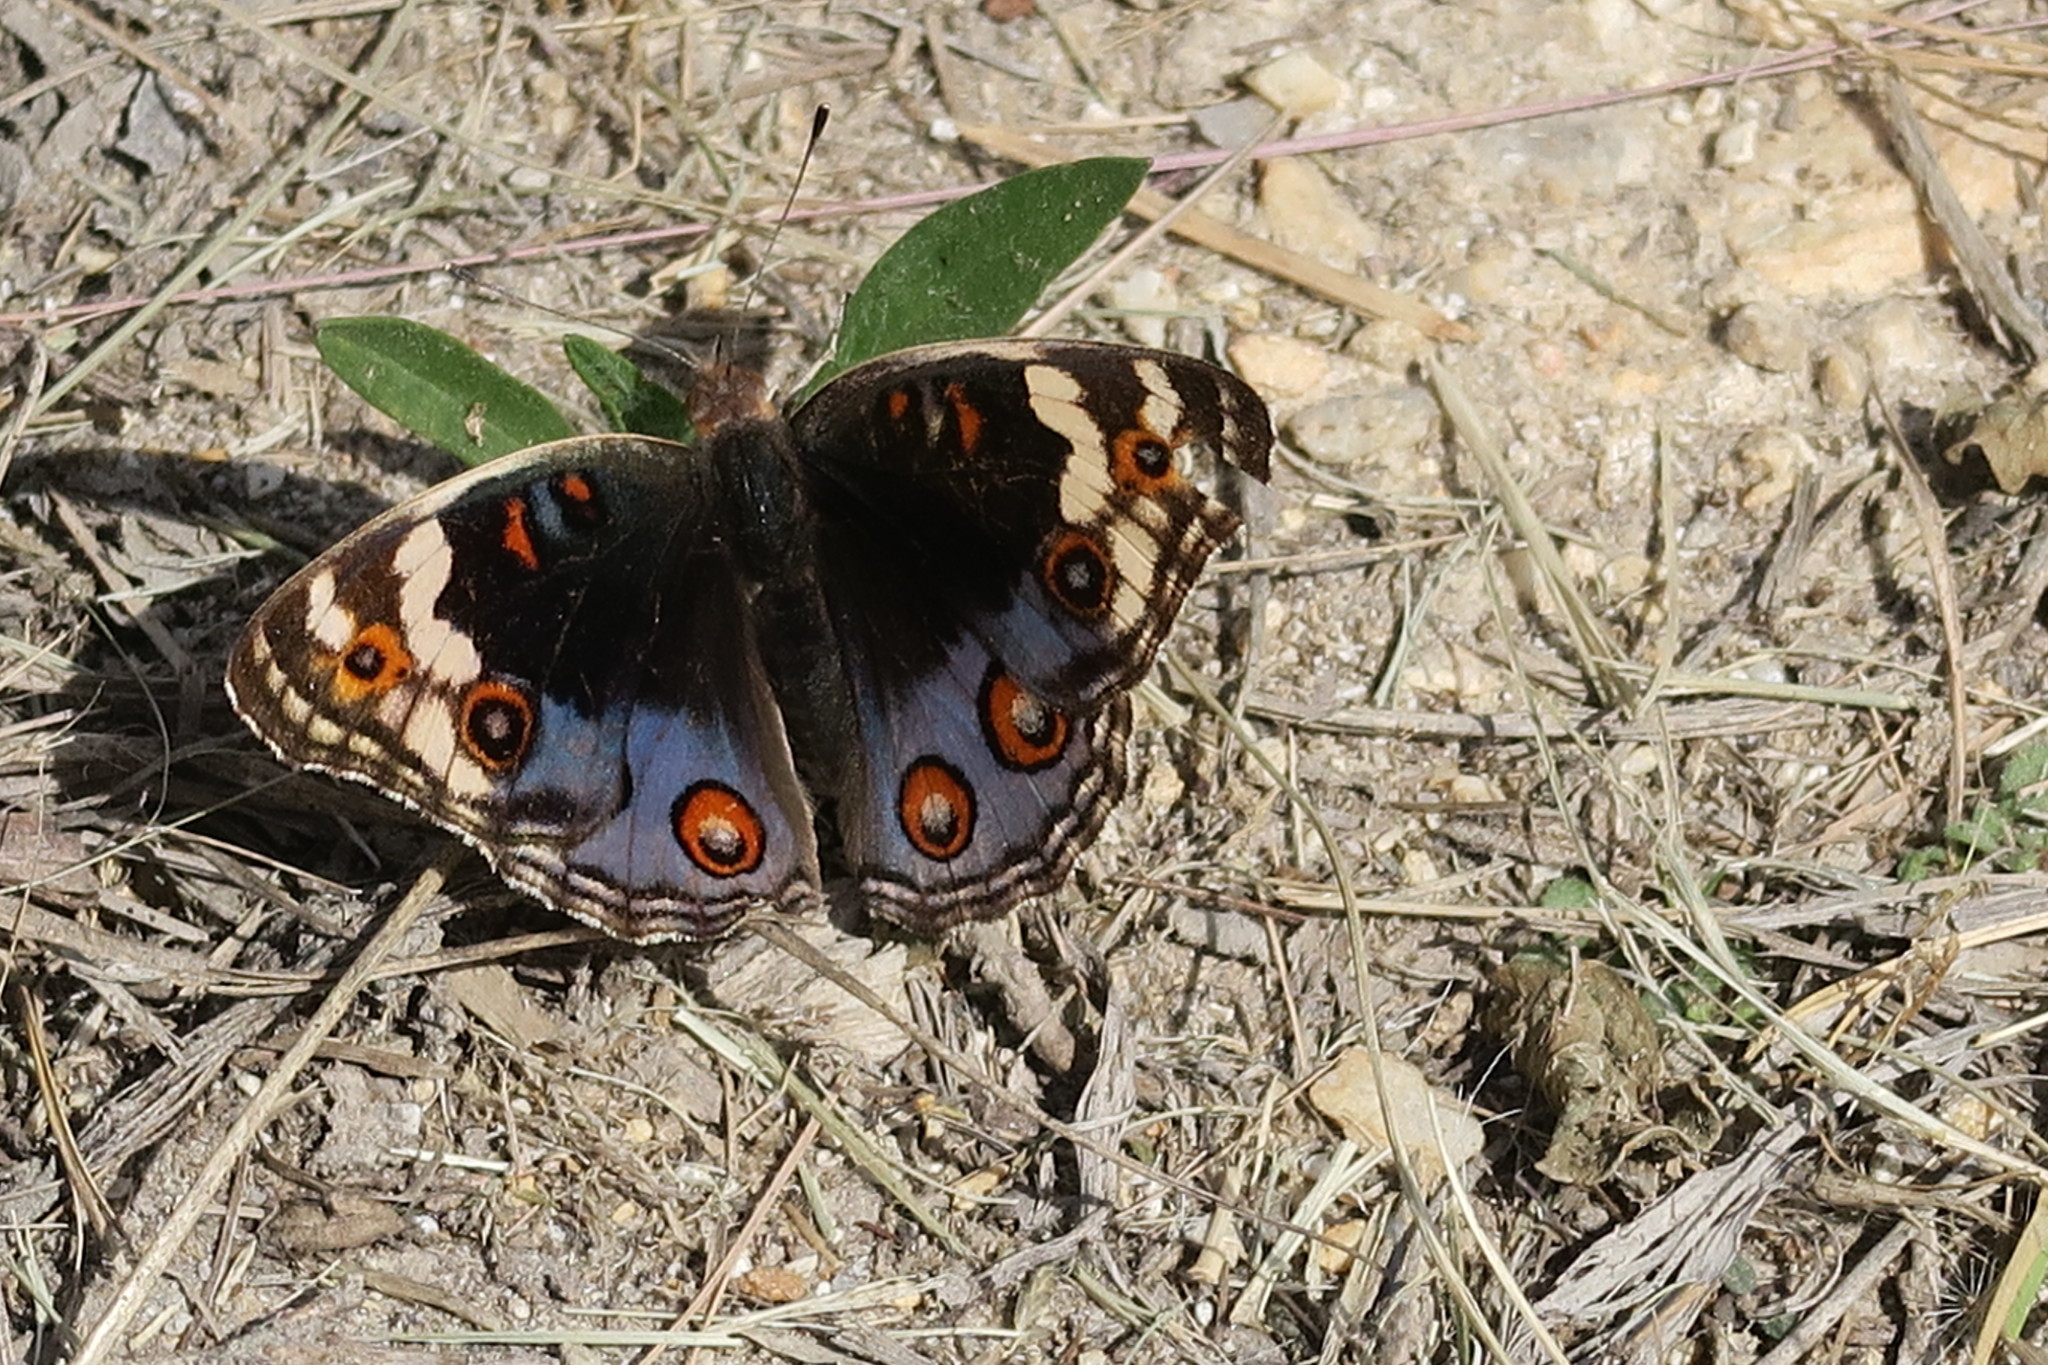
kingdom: Animalia
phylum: Arthropoda
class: Insecta
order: Lepidoptera
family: Nymphalidae
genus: Junonia
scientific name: Junonia orithya
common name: Blue pansy
